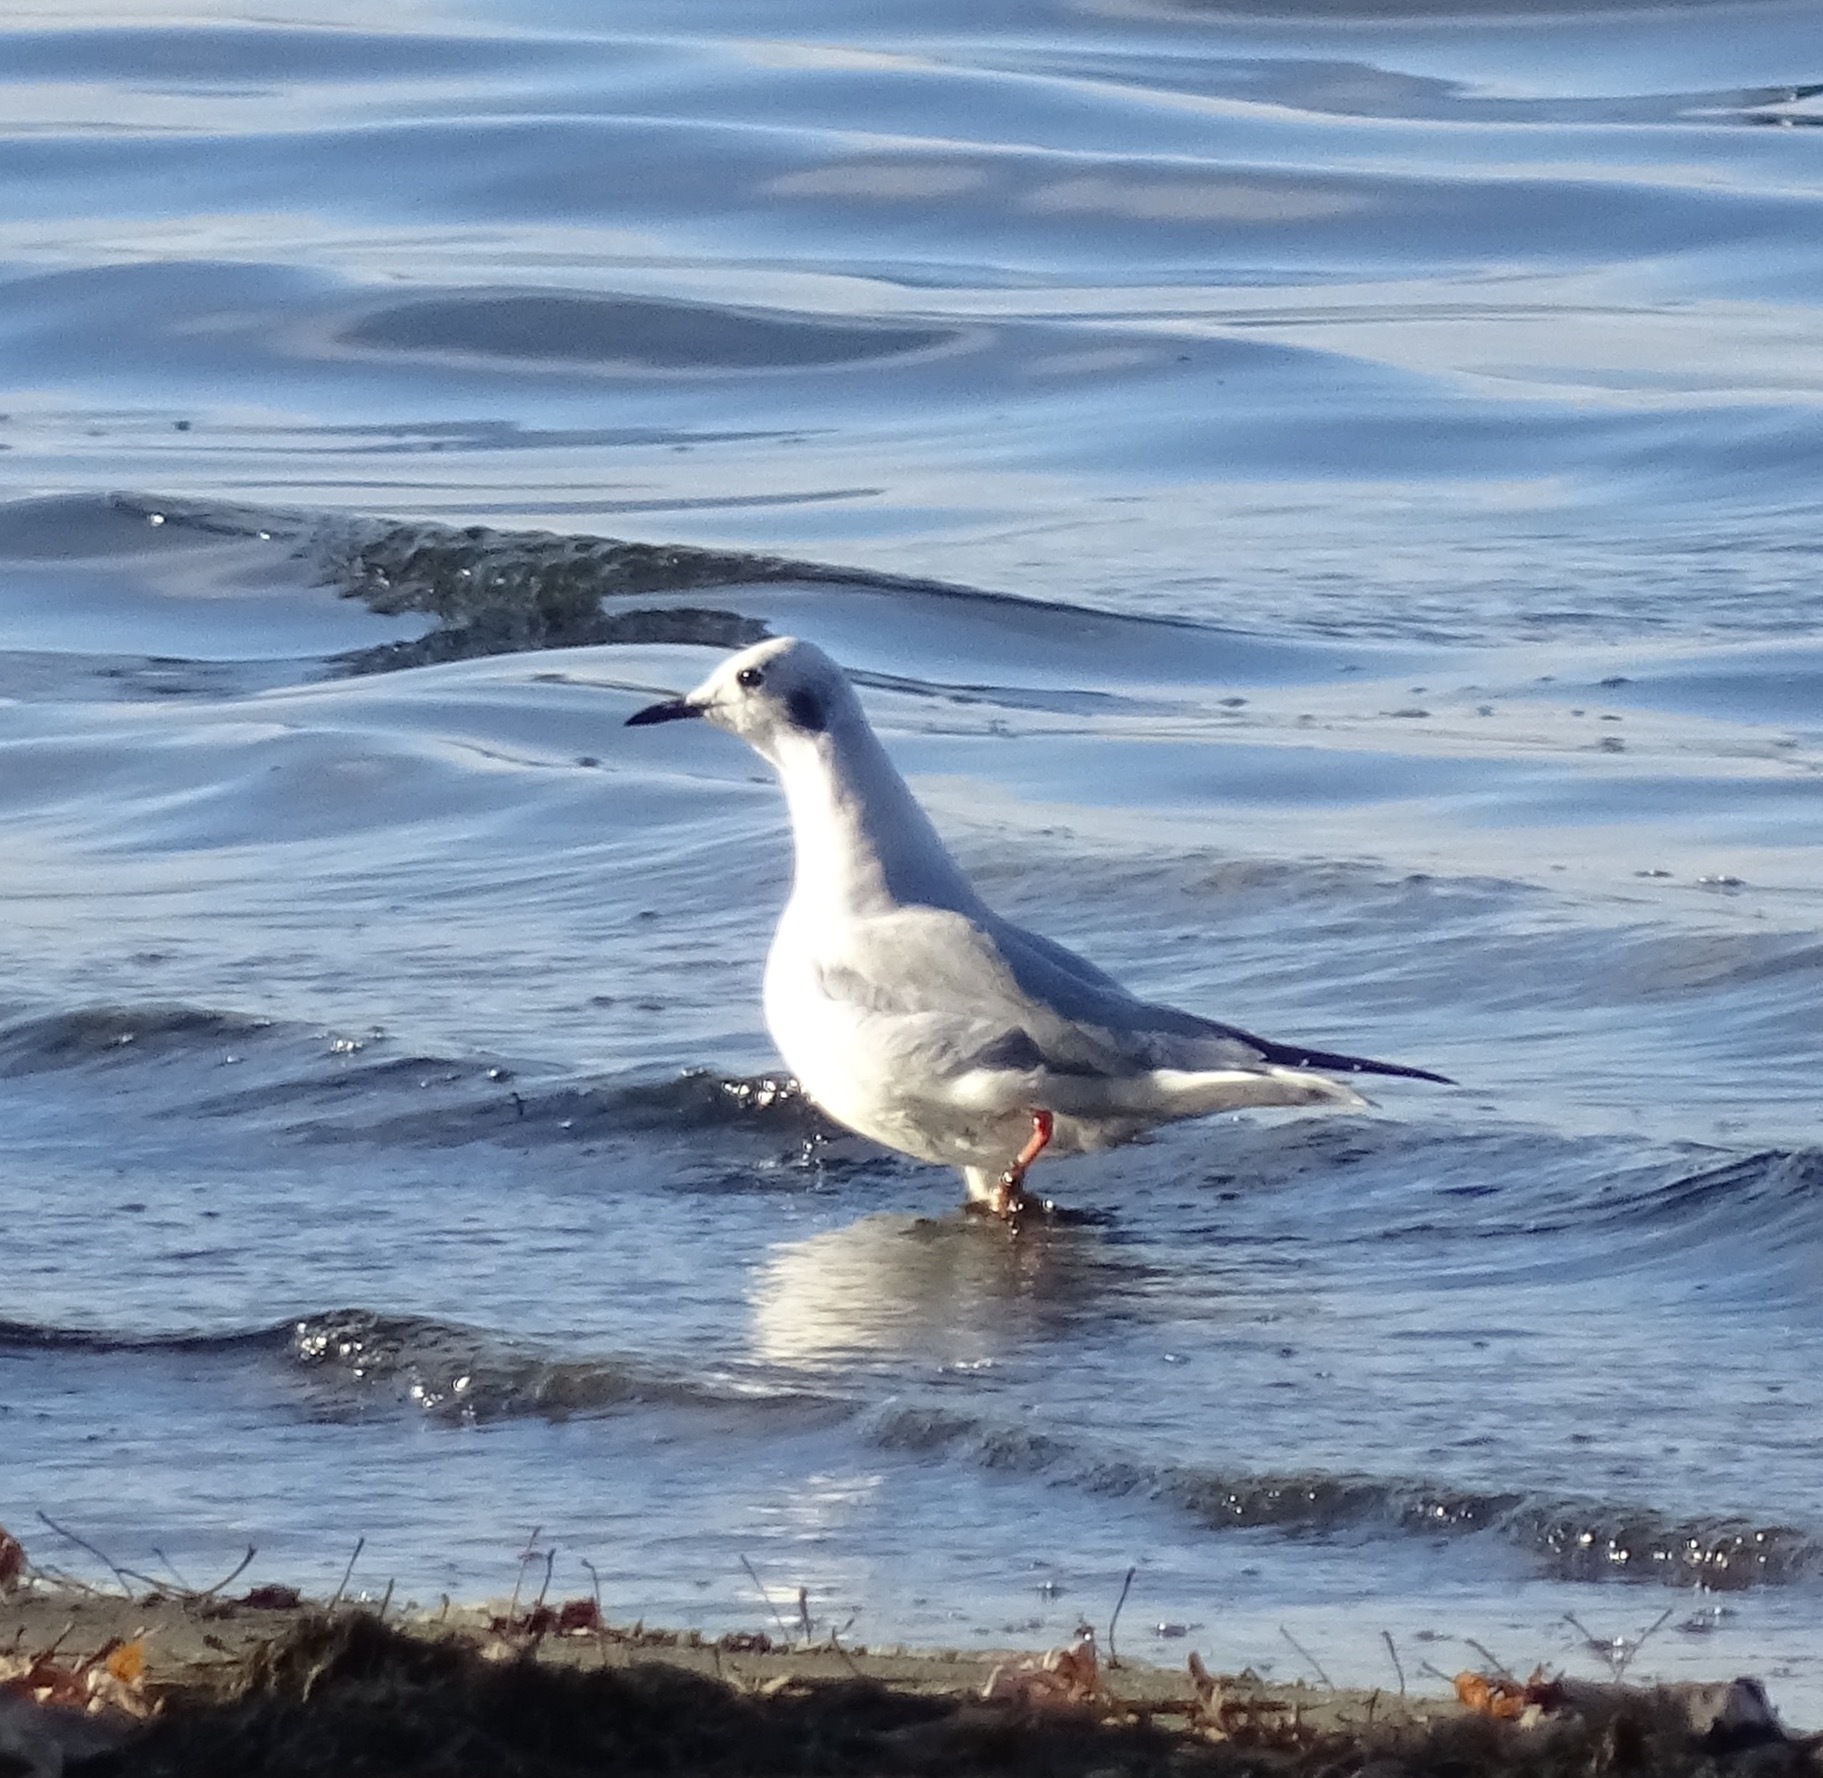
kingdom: Animalia
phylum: Chordata
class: Aves
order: Charadriiformes
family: Laridae
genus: Chroicocephalus
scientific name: Chroicocephalus philadelphia
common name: Bonaparte's gull
